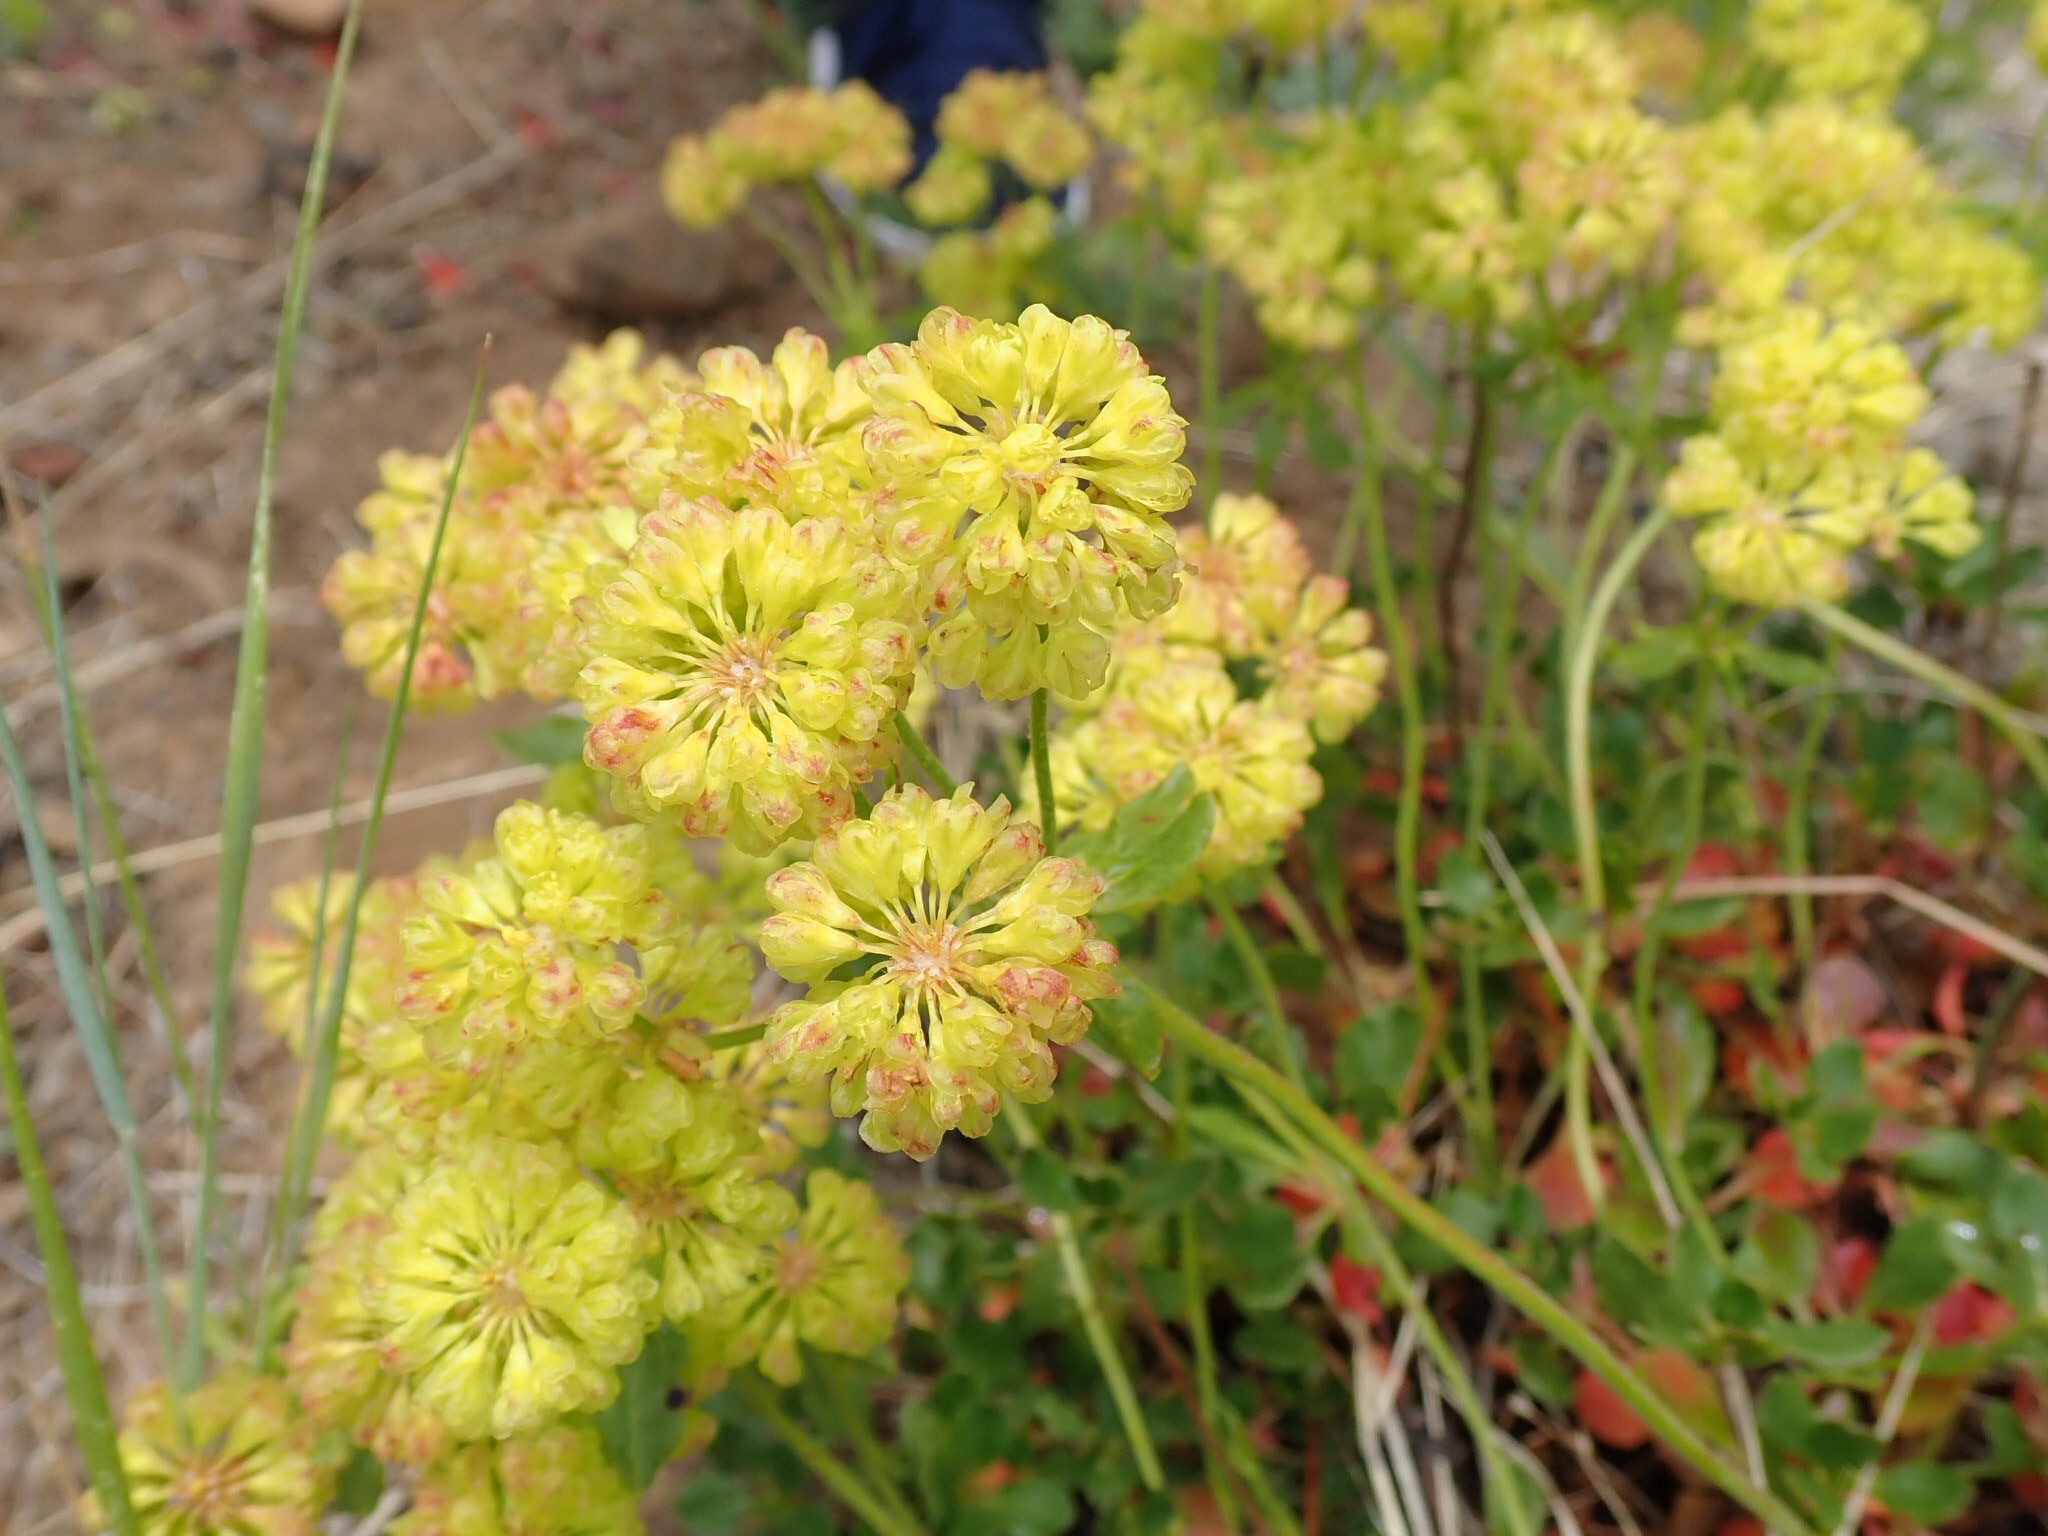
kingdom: Plantae
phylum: Tracheophyta
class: Magnoliopsida
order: Caryophyllales
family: Polygonaceae
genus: Eriogonum
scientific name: Eriogonum umbellatum
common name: Sulfur-buckwheat
